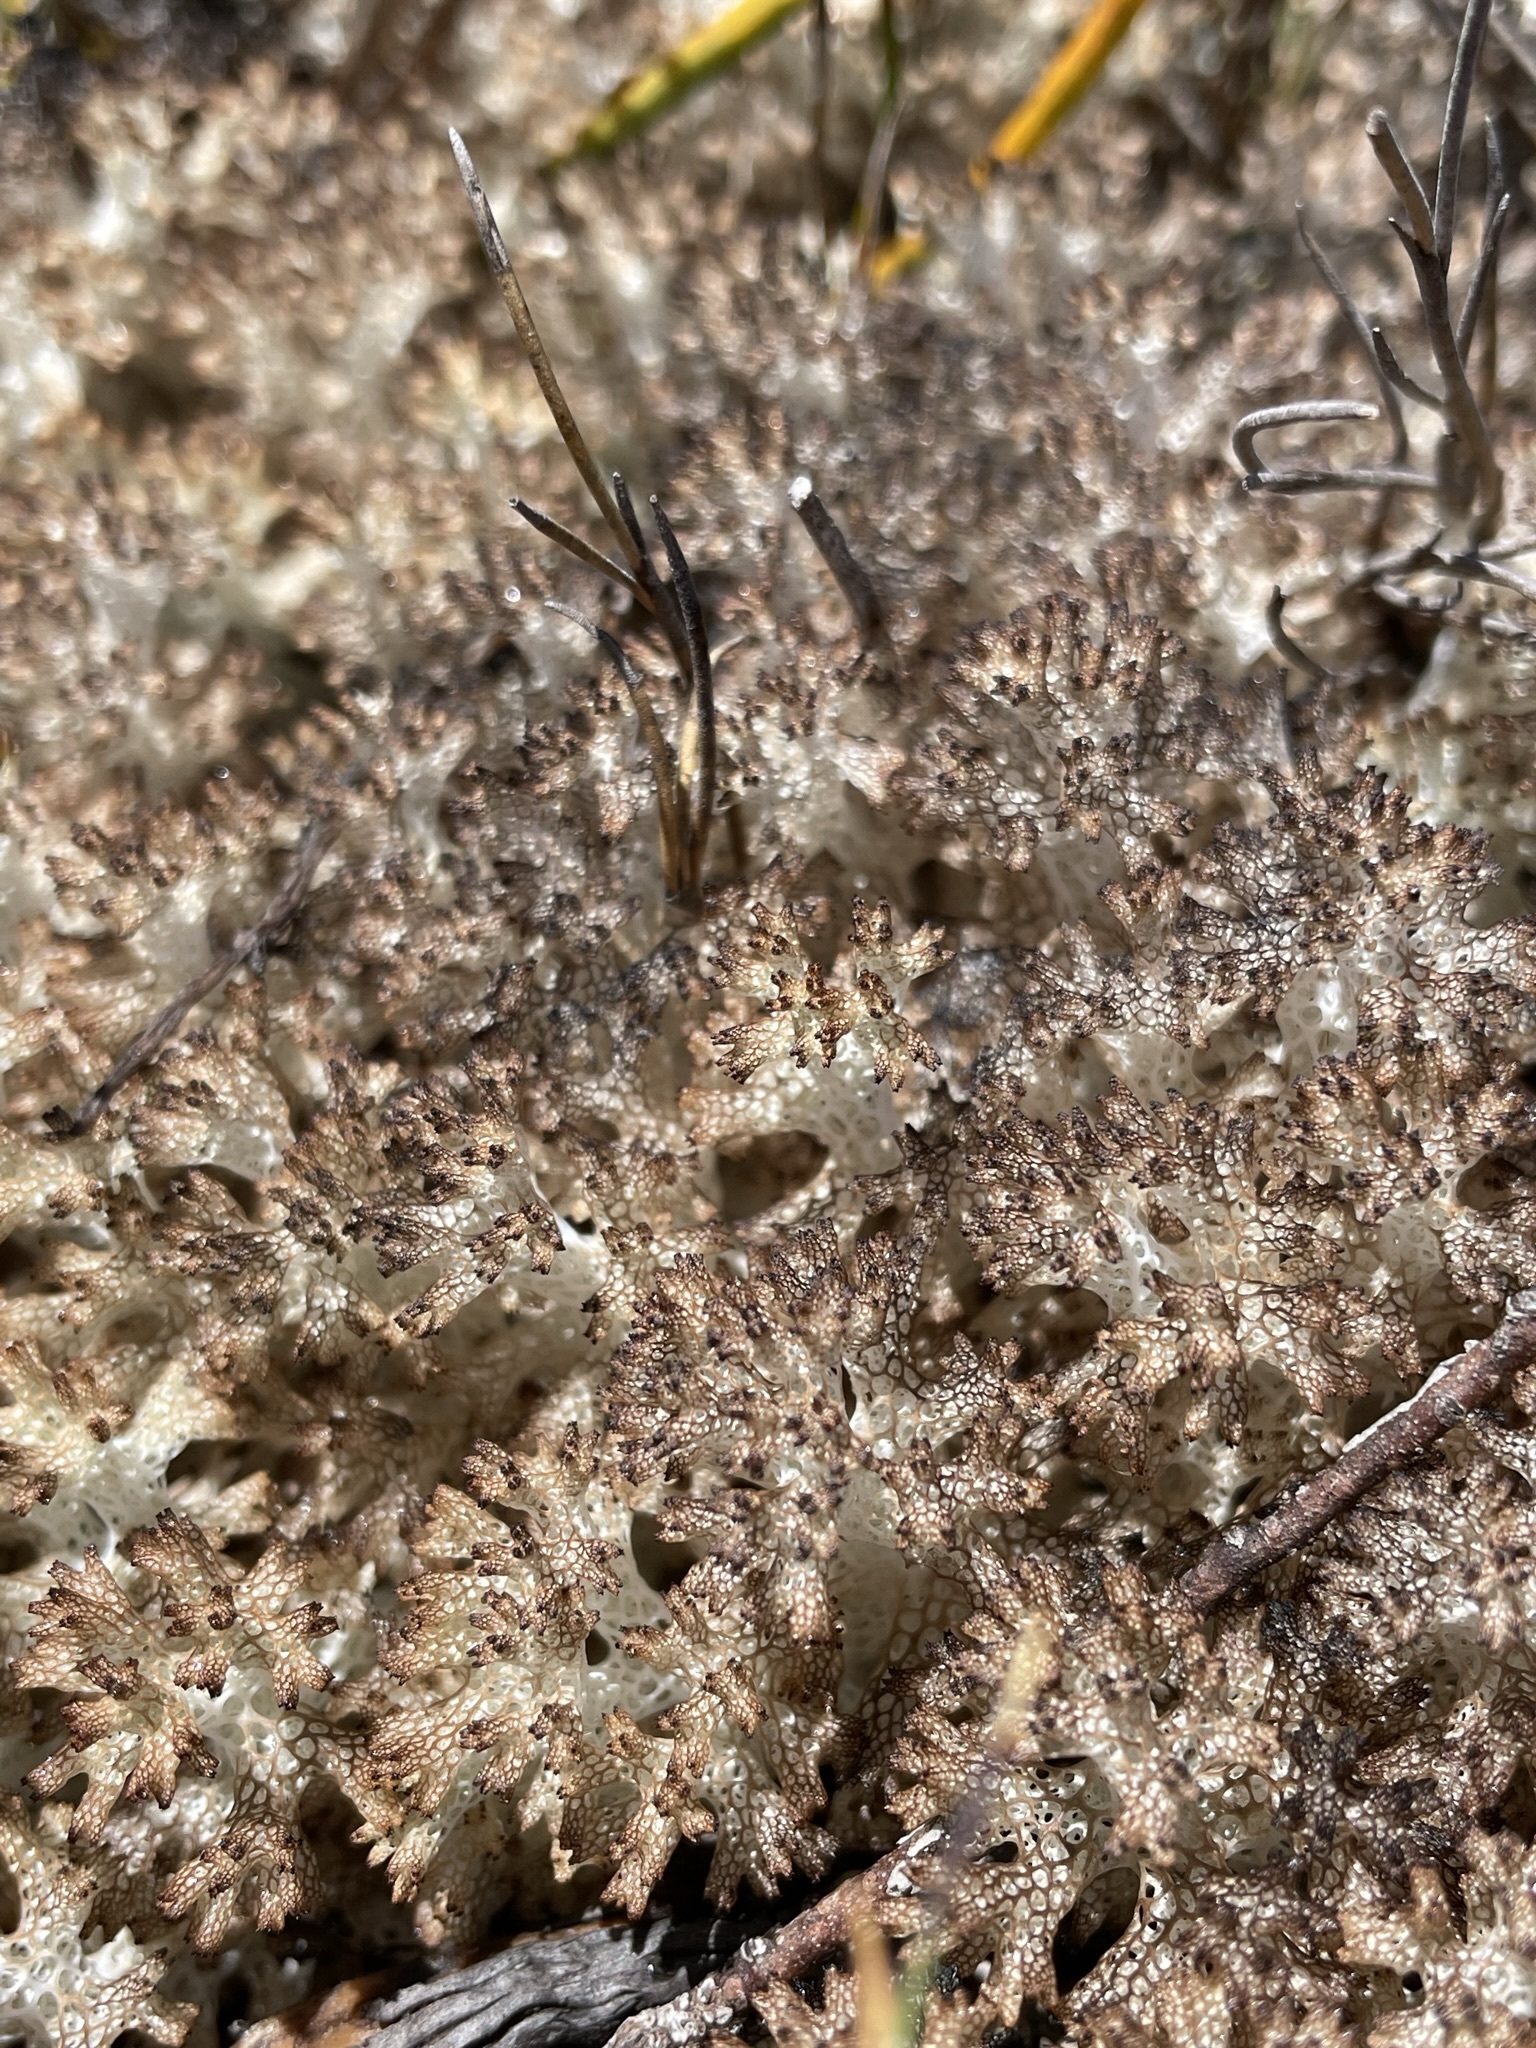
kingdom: Fungi
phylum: Ascomycota
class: Lecanoromycetes
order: Lecanorales
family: Cladoniaceae
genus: Pulchrocladia
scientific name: Pulchrocladia retipora
